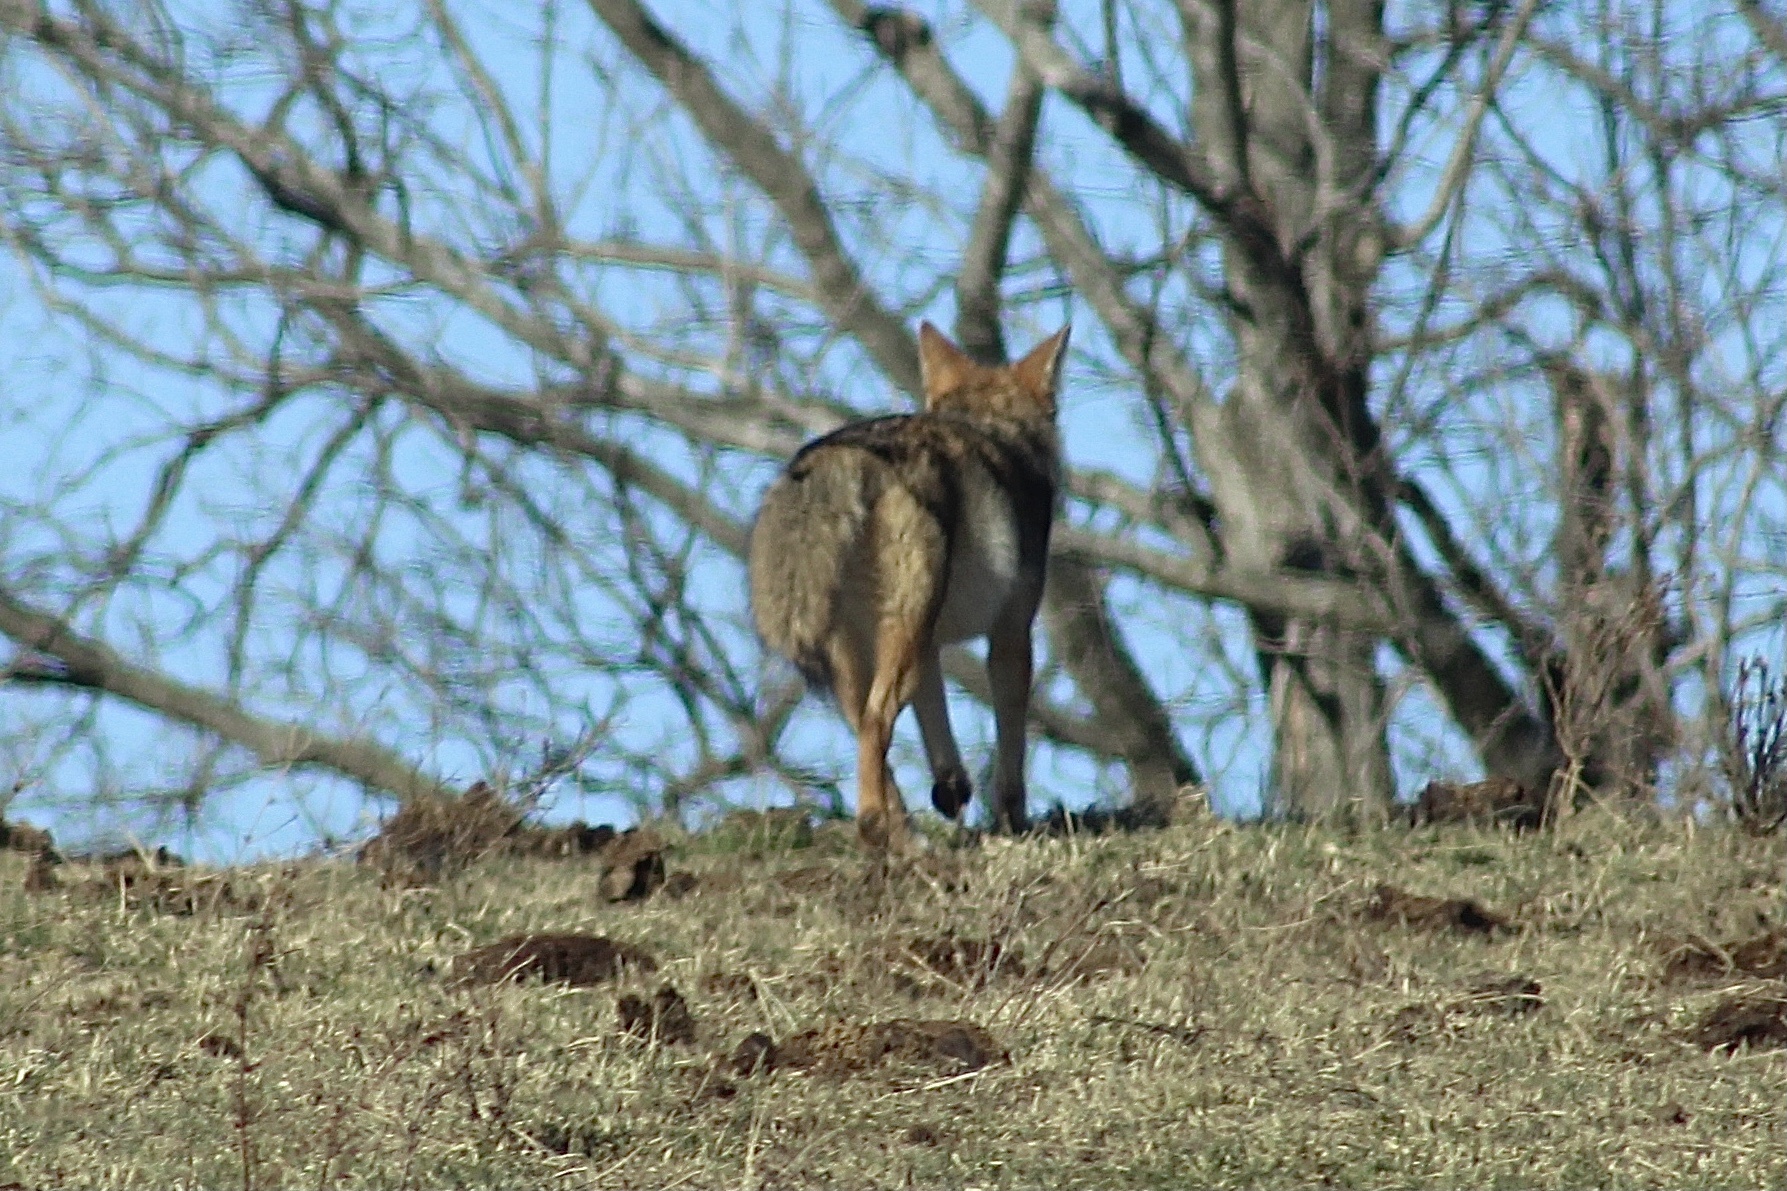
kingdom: Animalia
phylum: Chordata
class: Mammalia
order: Carnivora
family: Canidae
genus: Canis
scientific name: Canis latrans
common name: Coyote
